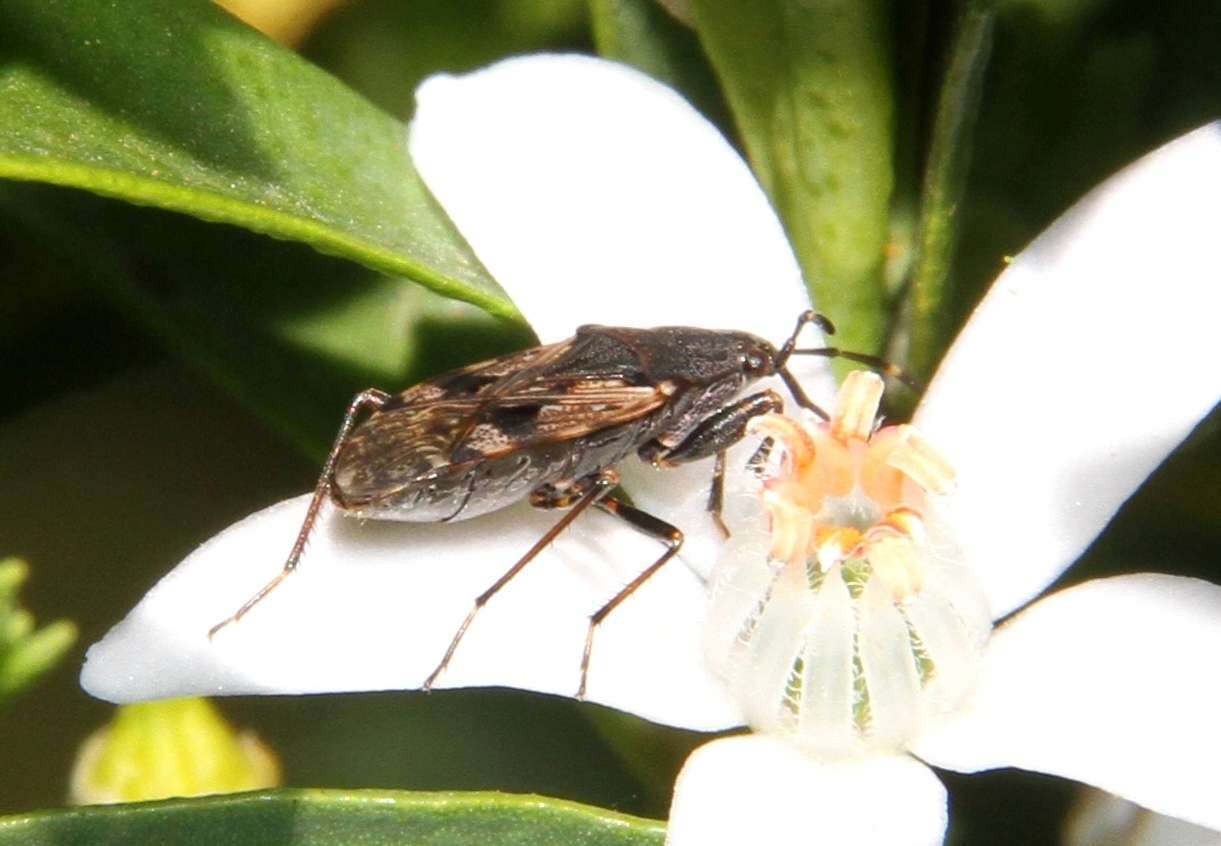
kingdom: Animalia
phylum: Arthropoda
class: Insecta
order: Hemiptera
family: Rhyparochromidae
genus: Euander
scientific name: Euander lacertosus
